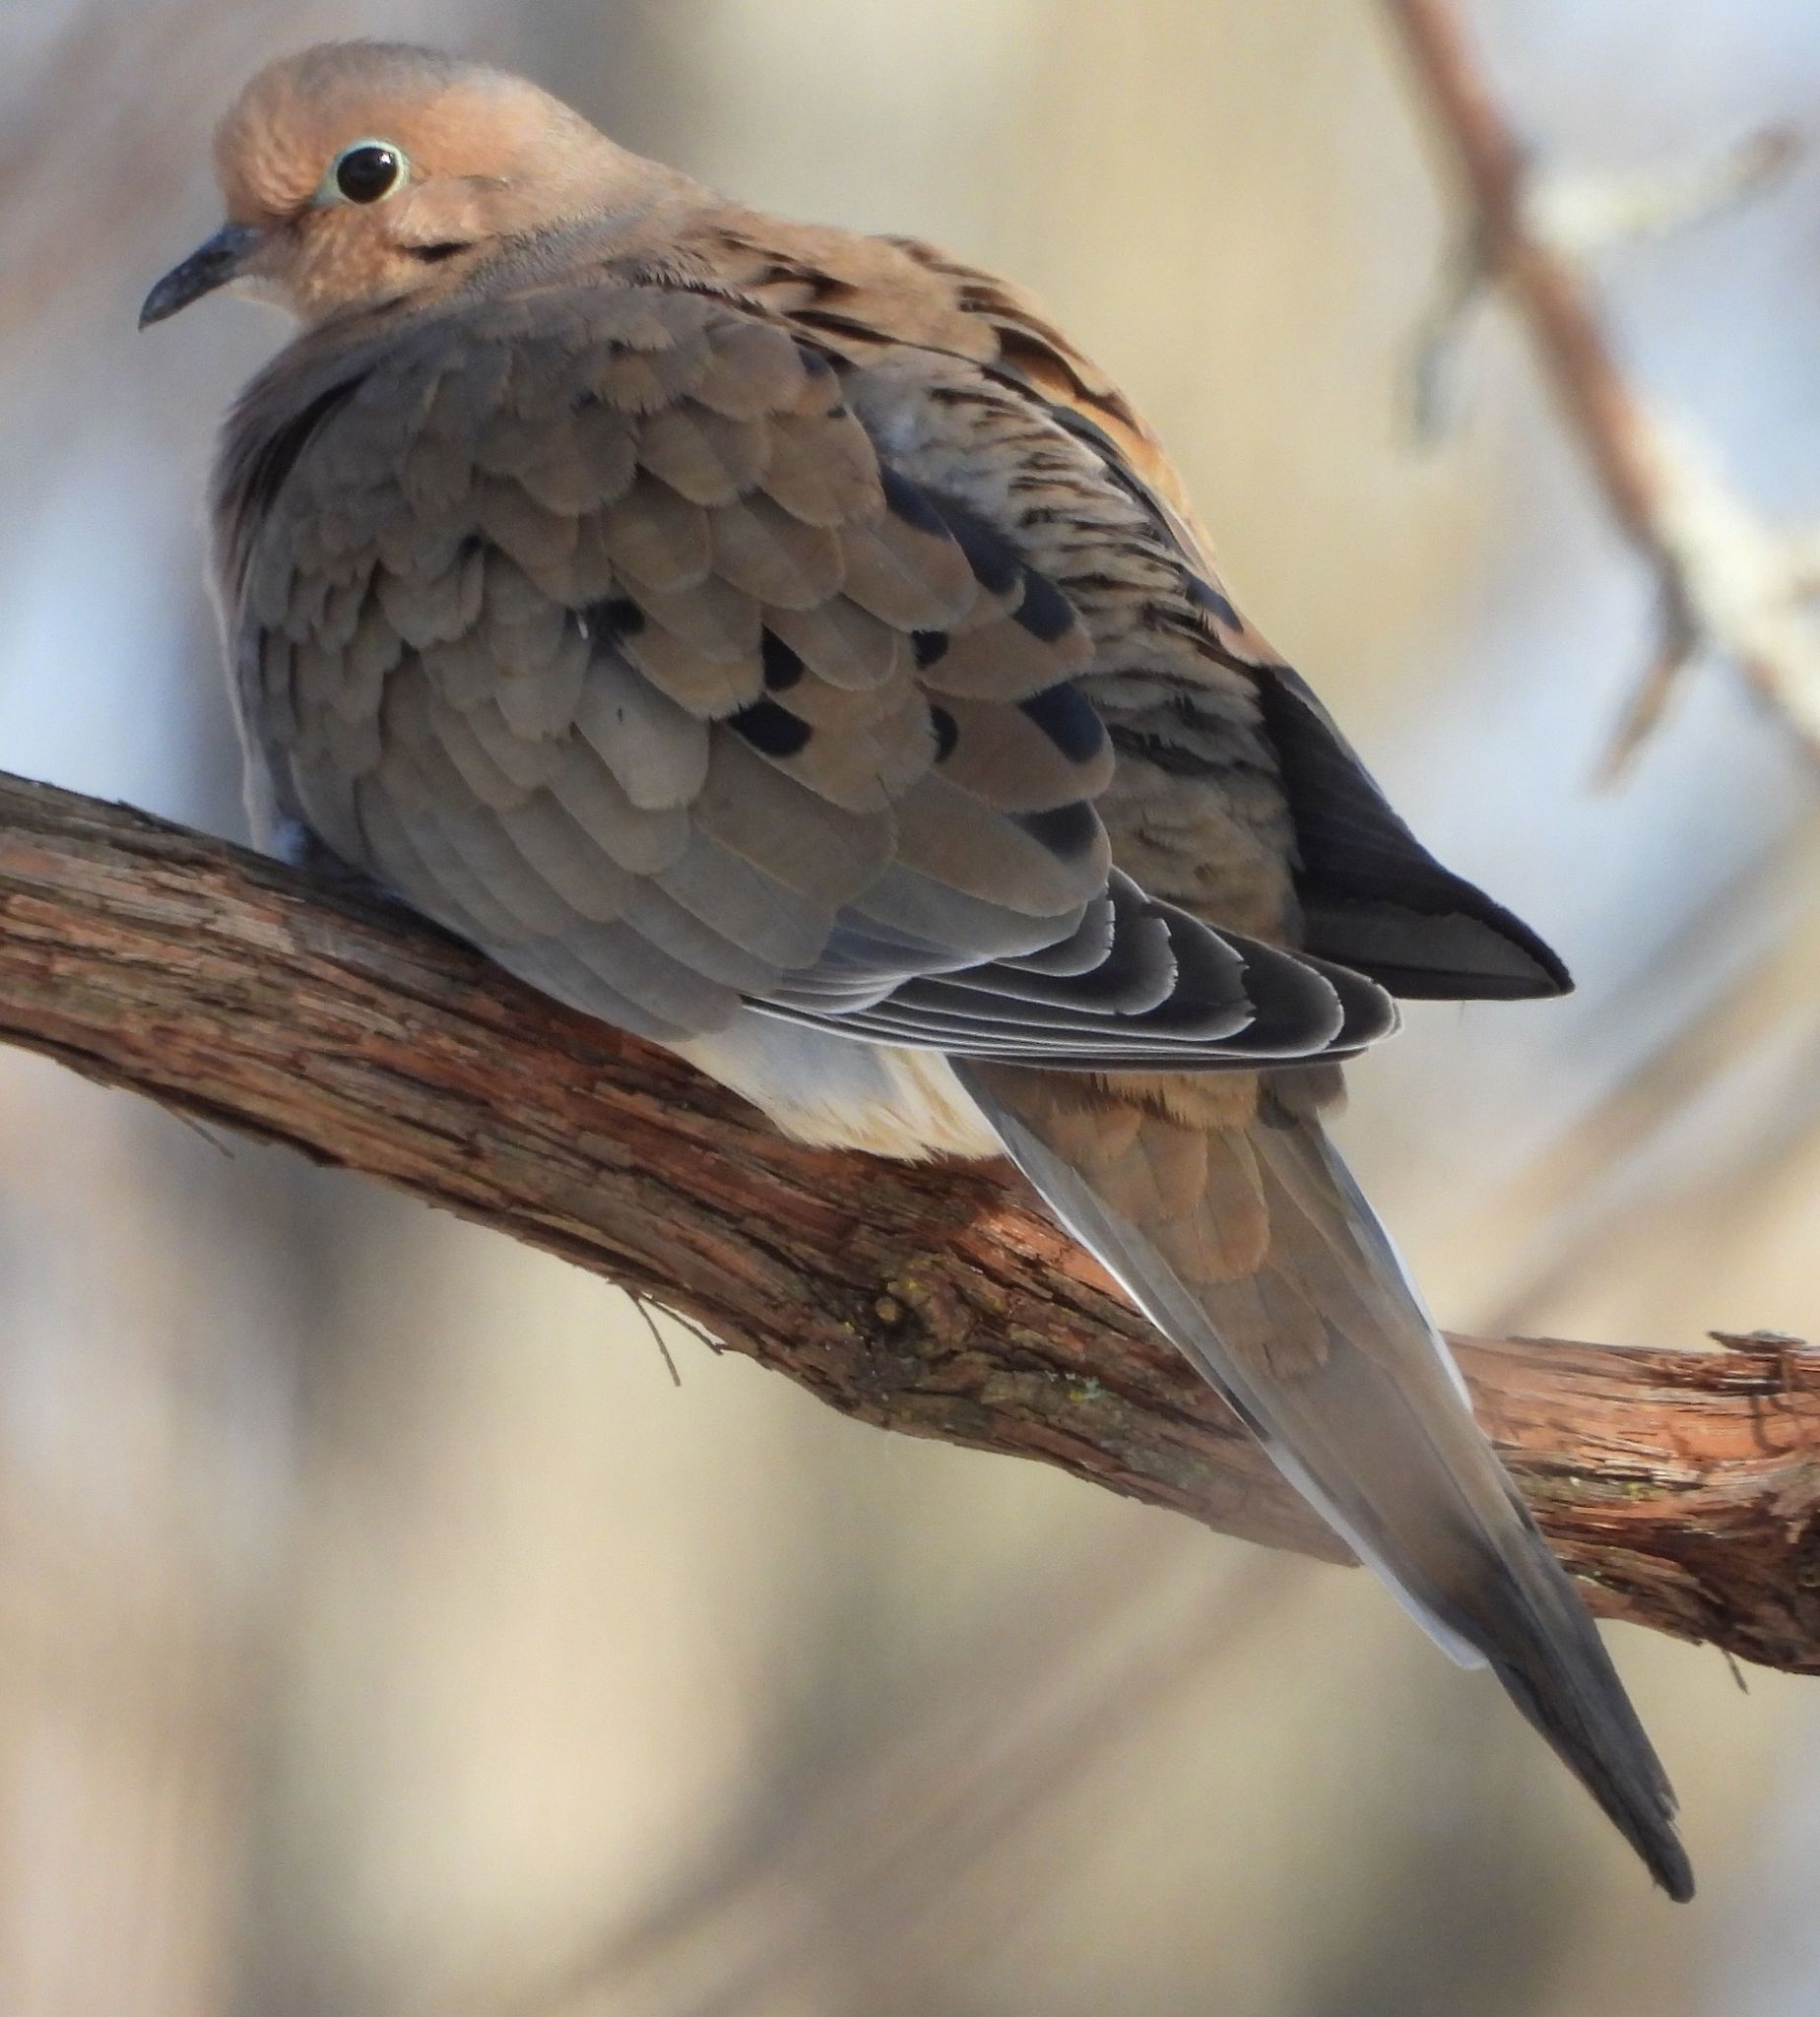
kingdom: Animalia
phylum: Chordata
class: Aves
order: Columbiformes
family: Columbidae
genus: Zenaida
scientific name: Zenaida macroura
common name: Mourning dove
